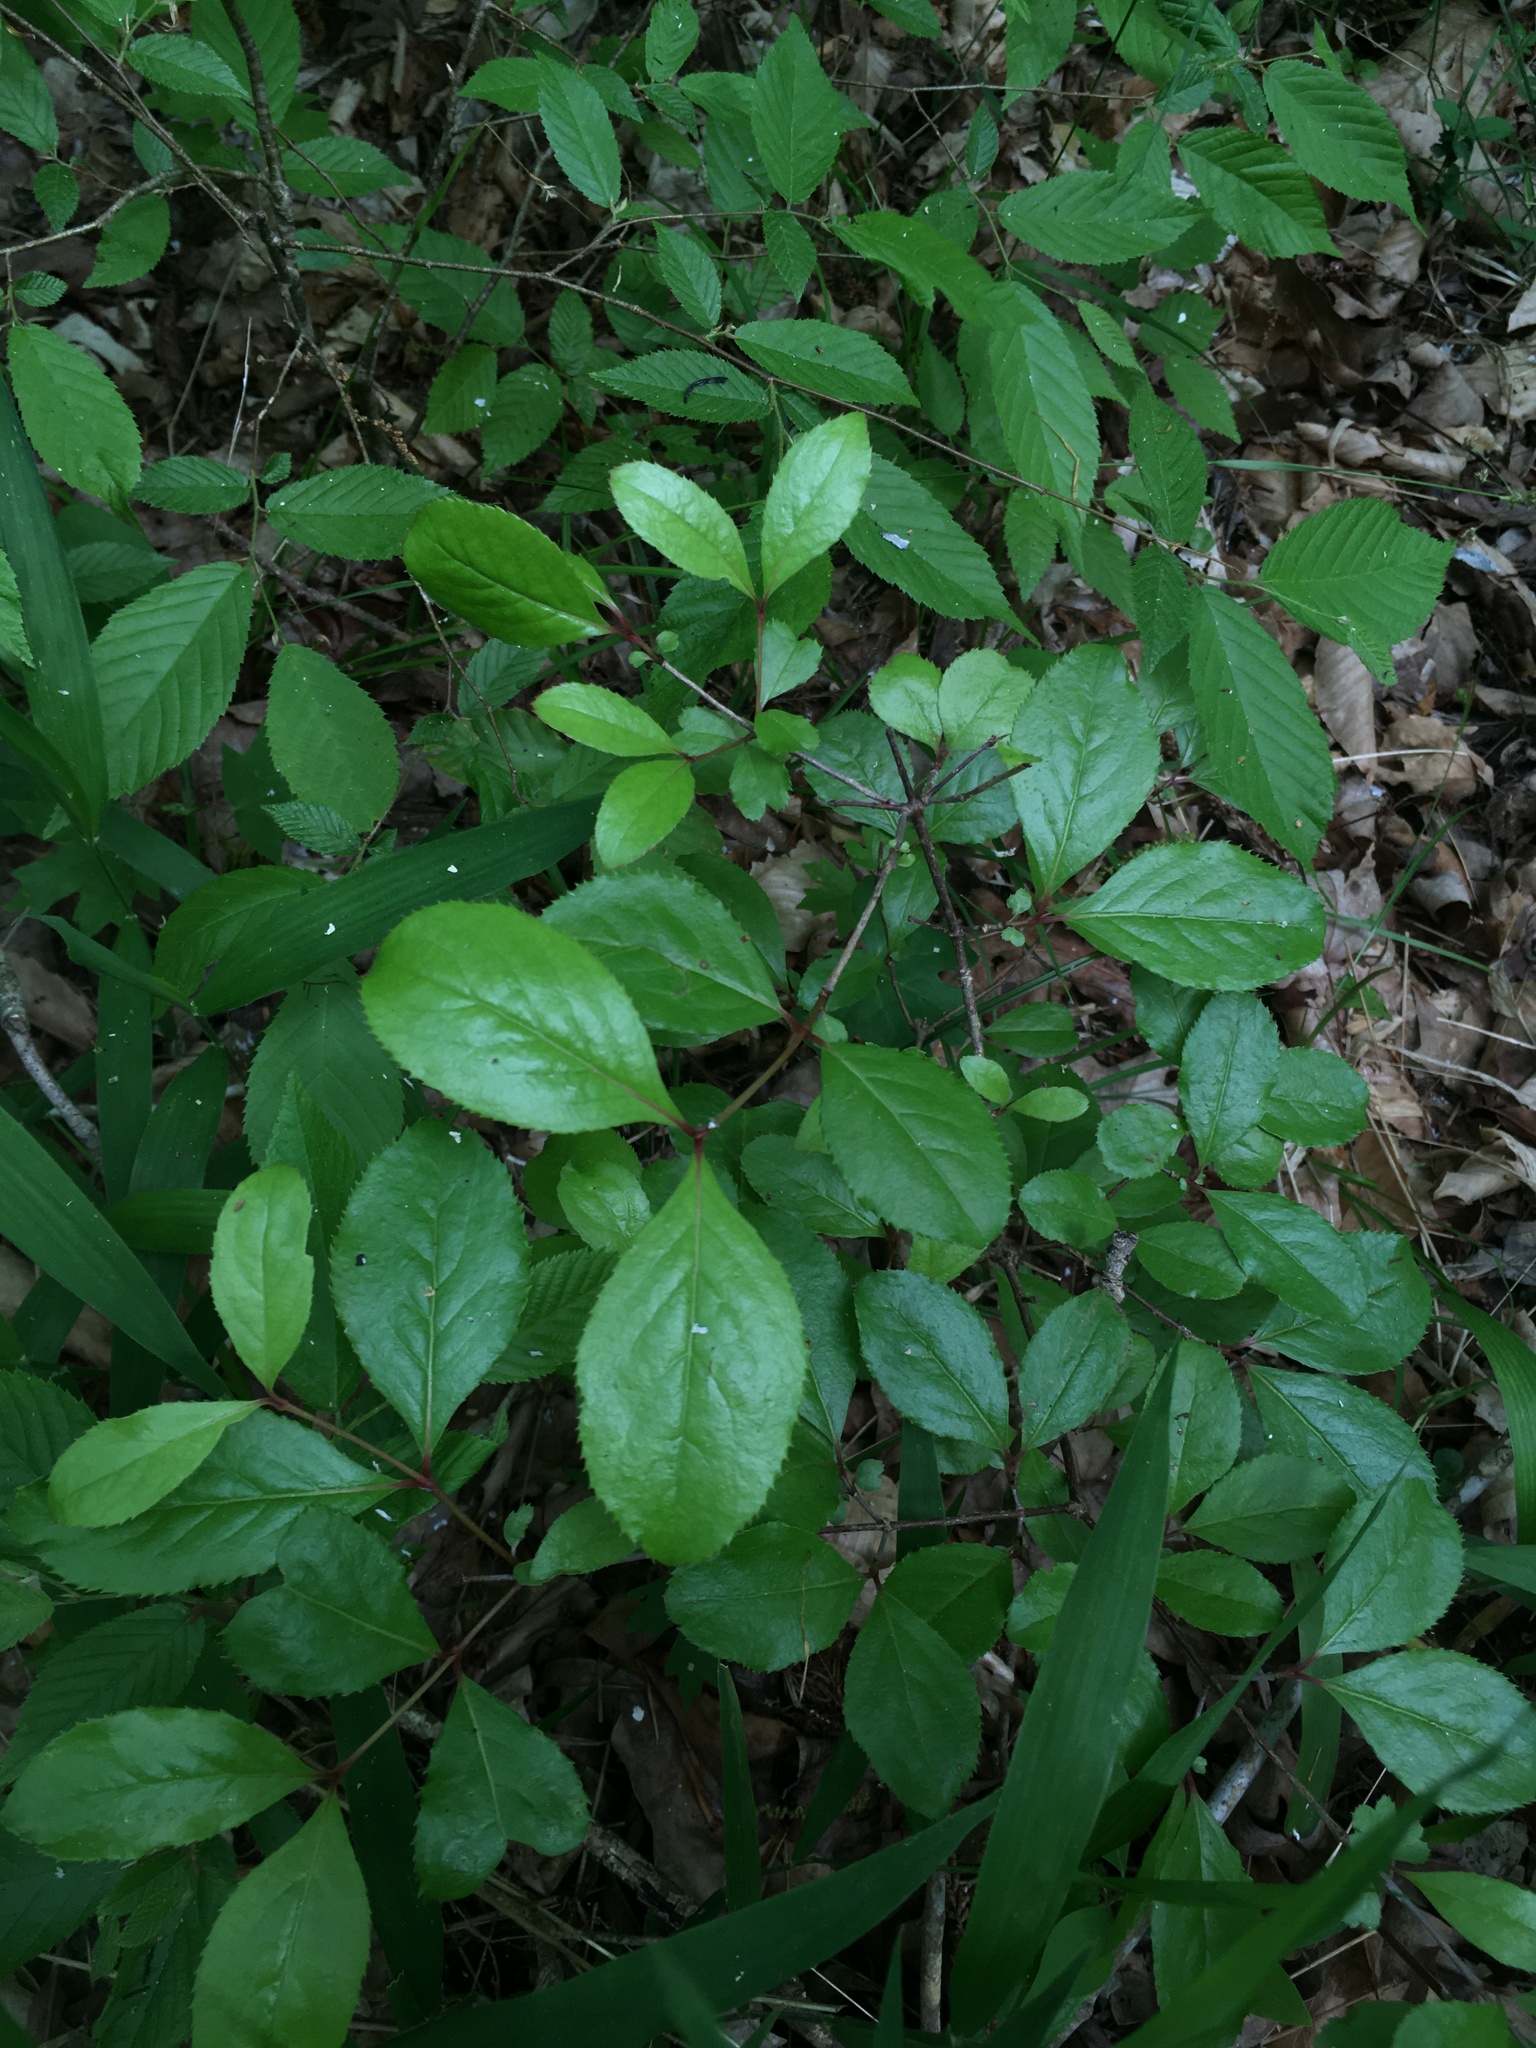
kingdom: Plantae
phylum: Tracheophyta
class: Magnoliopsida
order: Dipsacales
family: Viburnaceae
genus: Viburnum
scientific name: Viburnum rufidulum
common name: Blue haw
